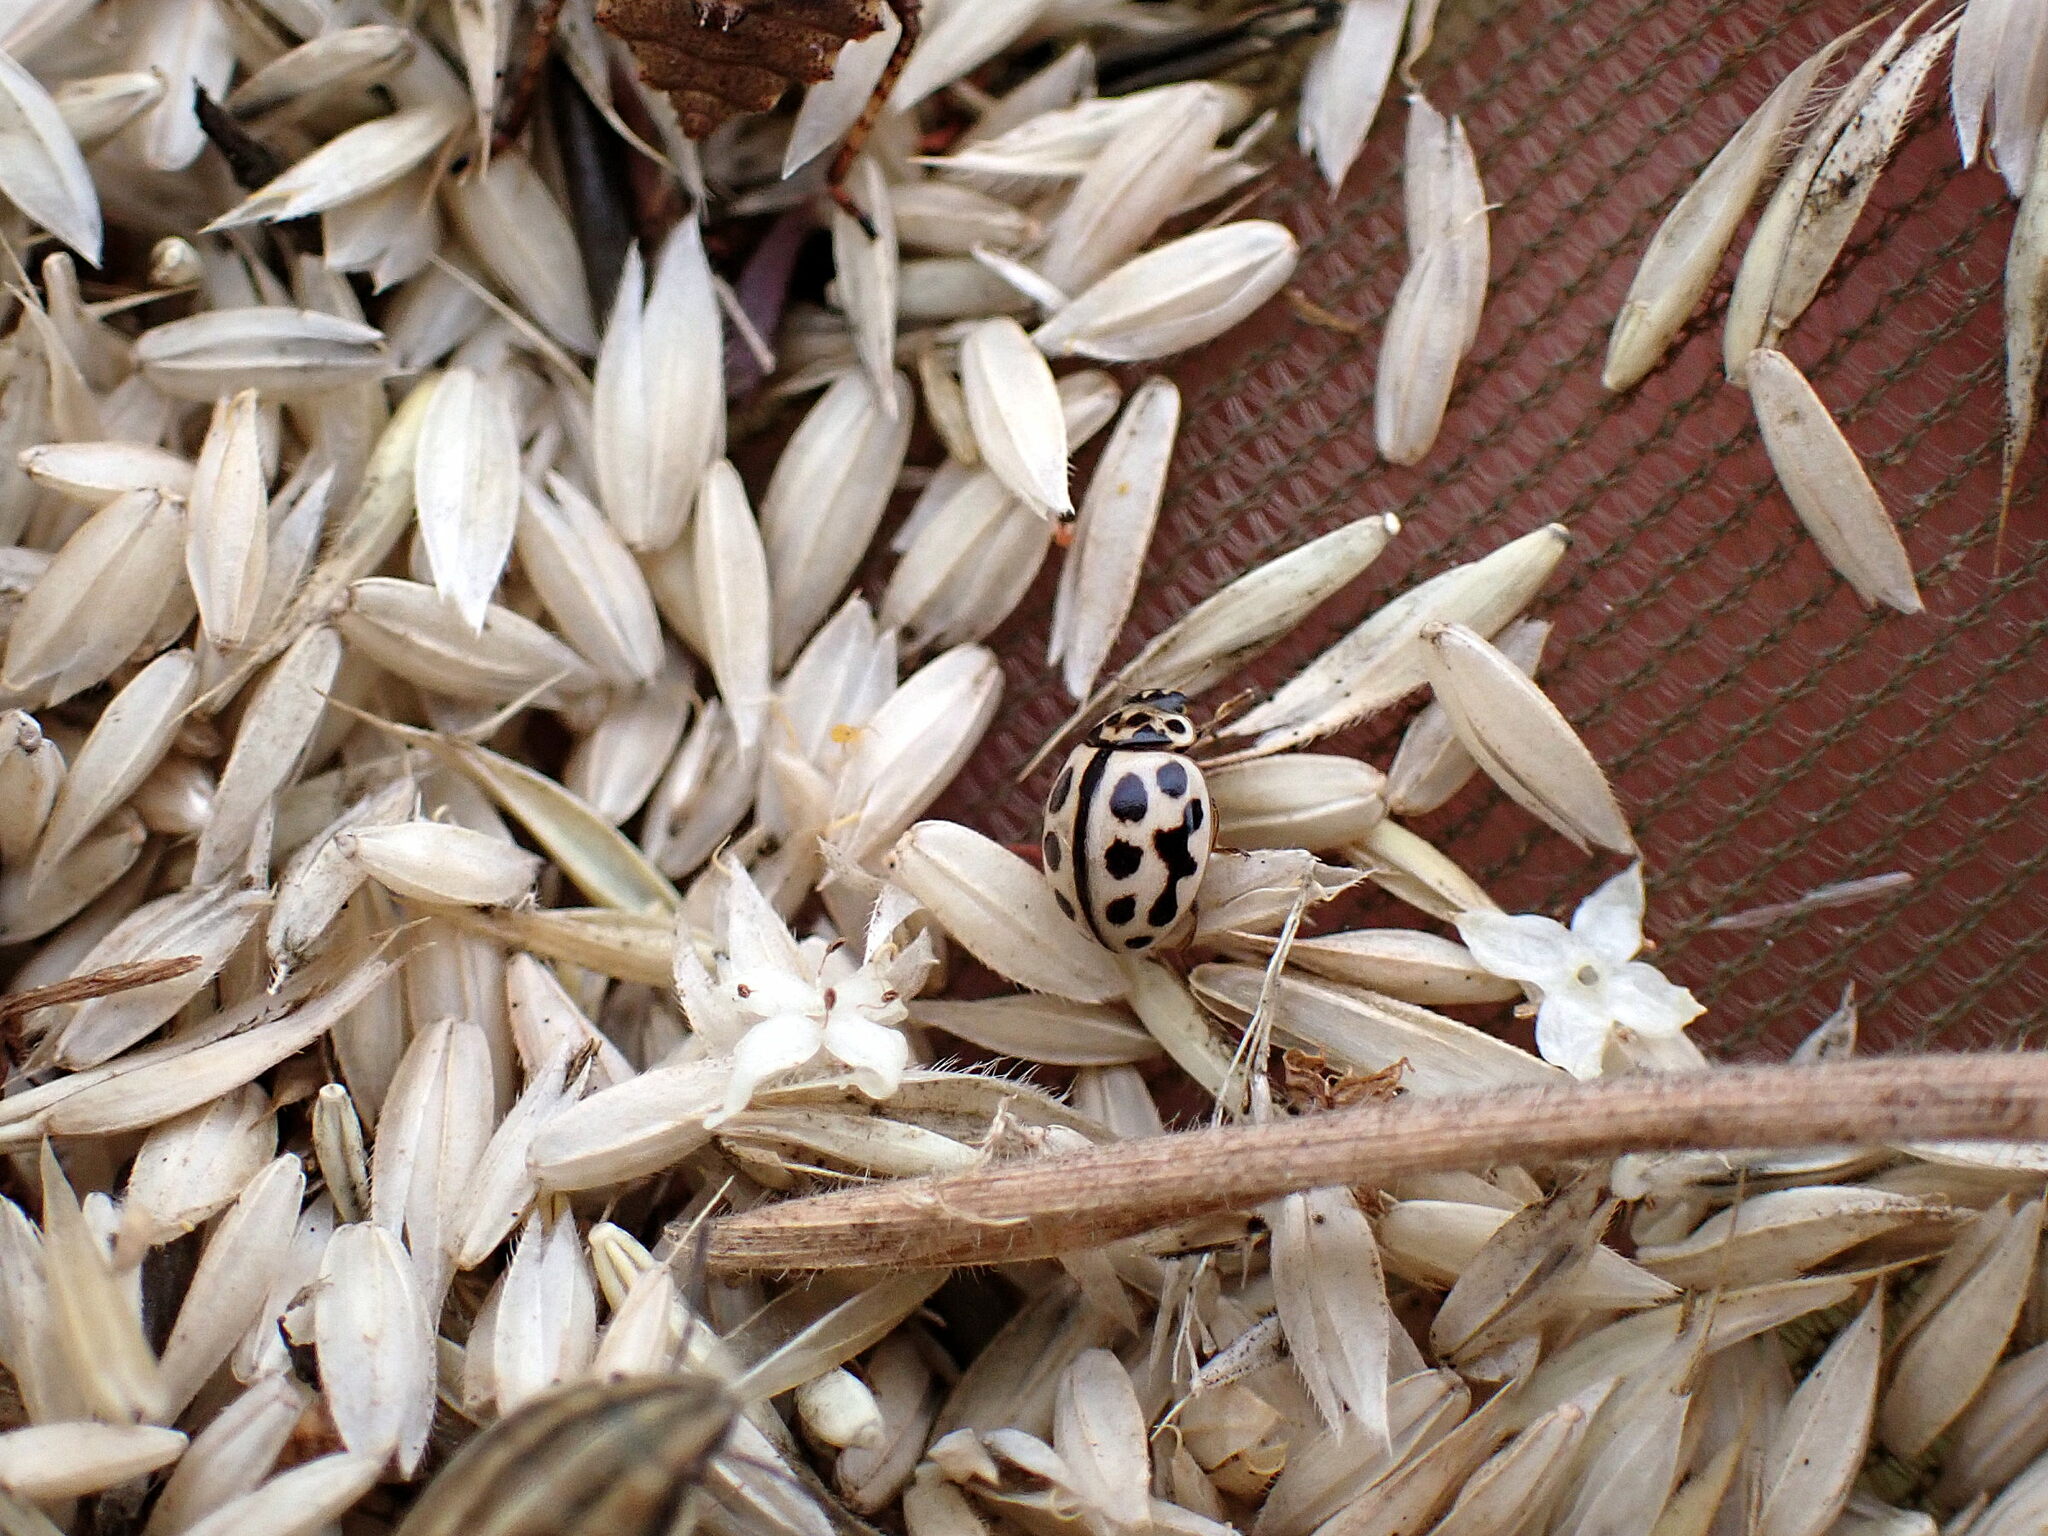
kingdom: Animalia
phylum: Arthropoda
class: Insecta
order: Coleoptera
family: Coccinellidae
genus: Tytthaspis
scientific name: Tytthaspis sedecimpunctata
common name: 16-spot ladybird
